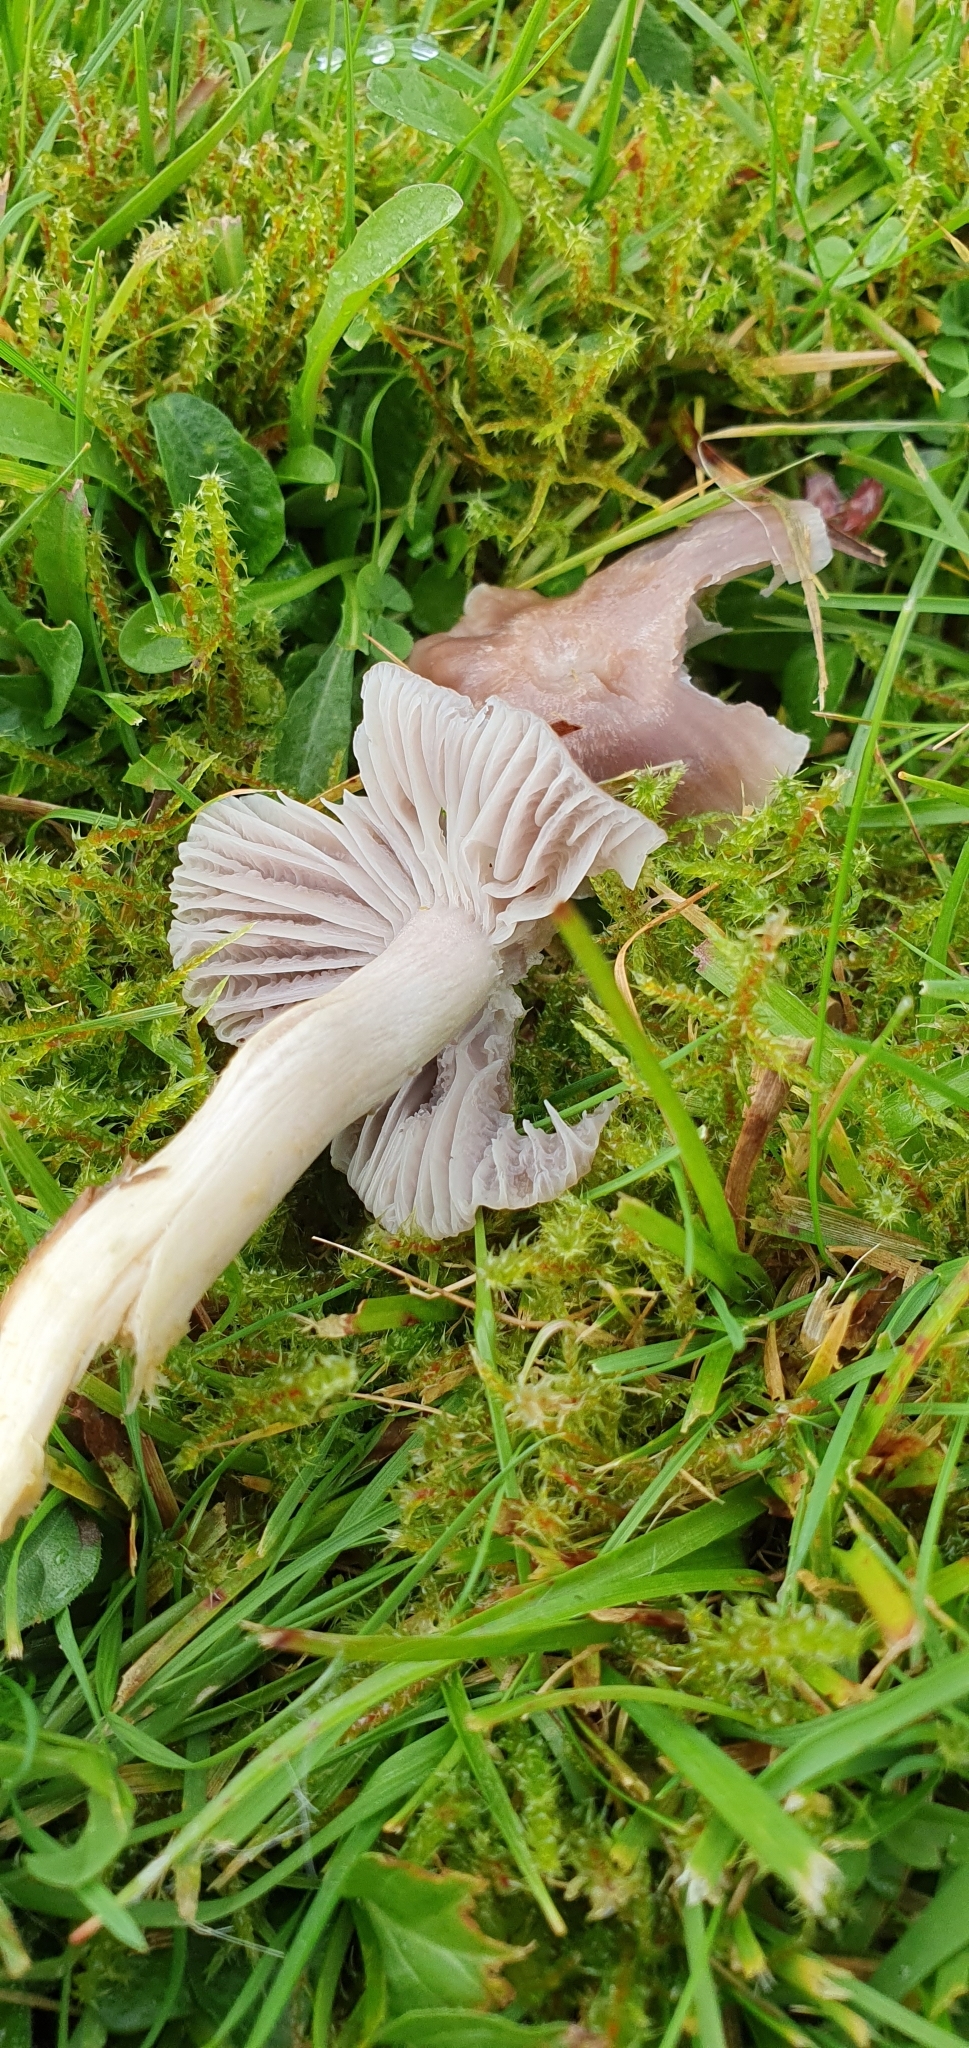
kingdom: Fungi
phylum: Basidiomycota
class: Agaricomycetes
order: Agaricales
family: Hygrophoraceae
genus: Porpolomopsis
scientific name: Porpolomopsis calyptriformis
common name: Pink waxcap
